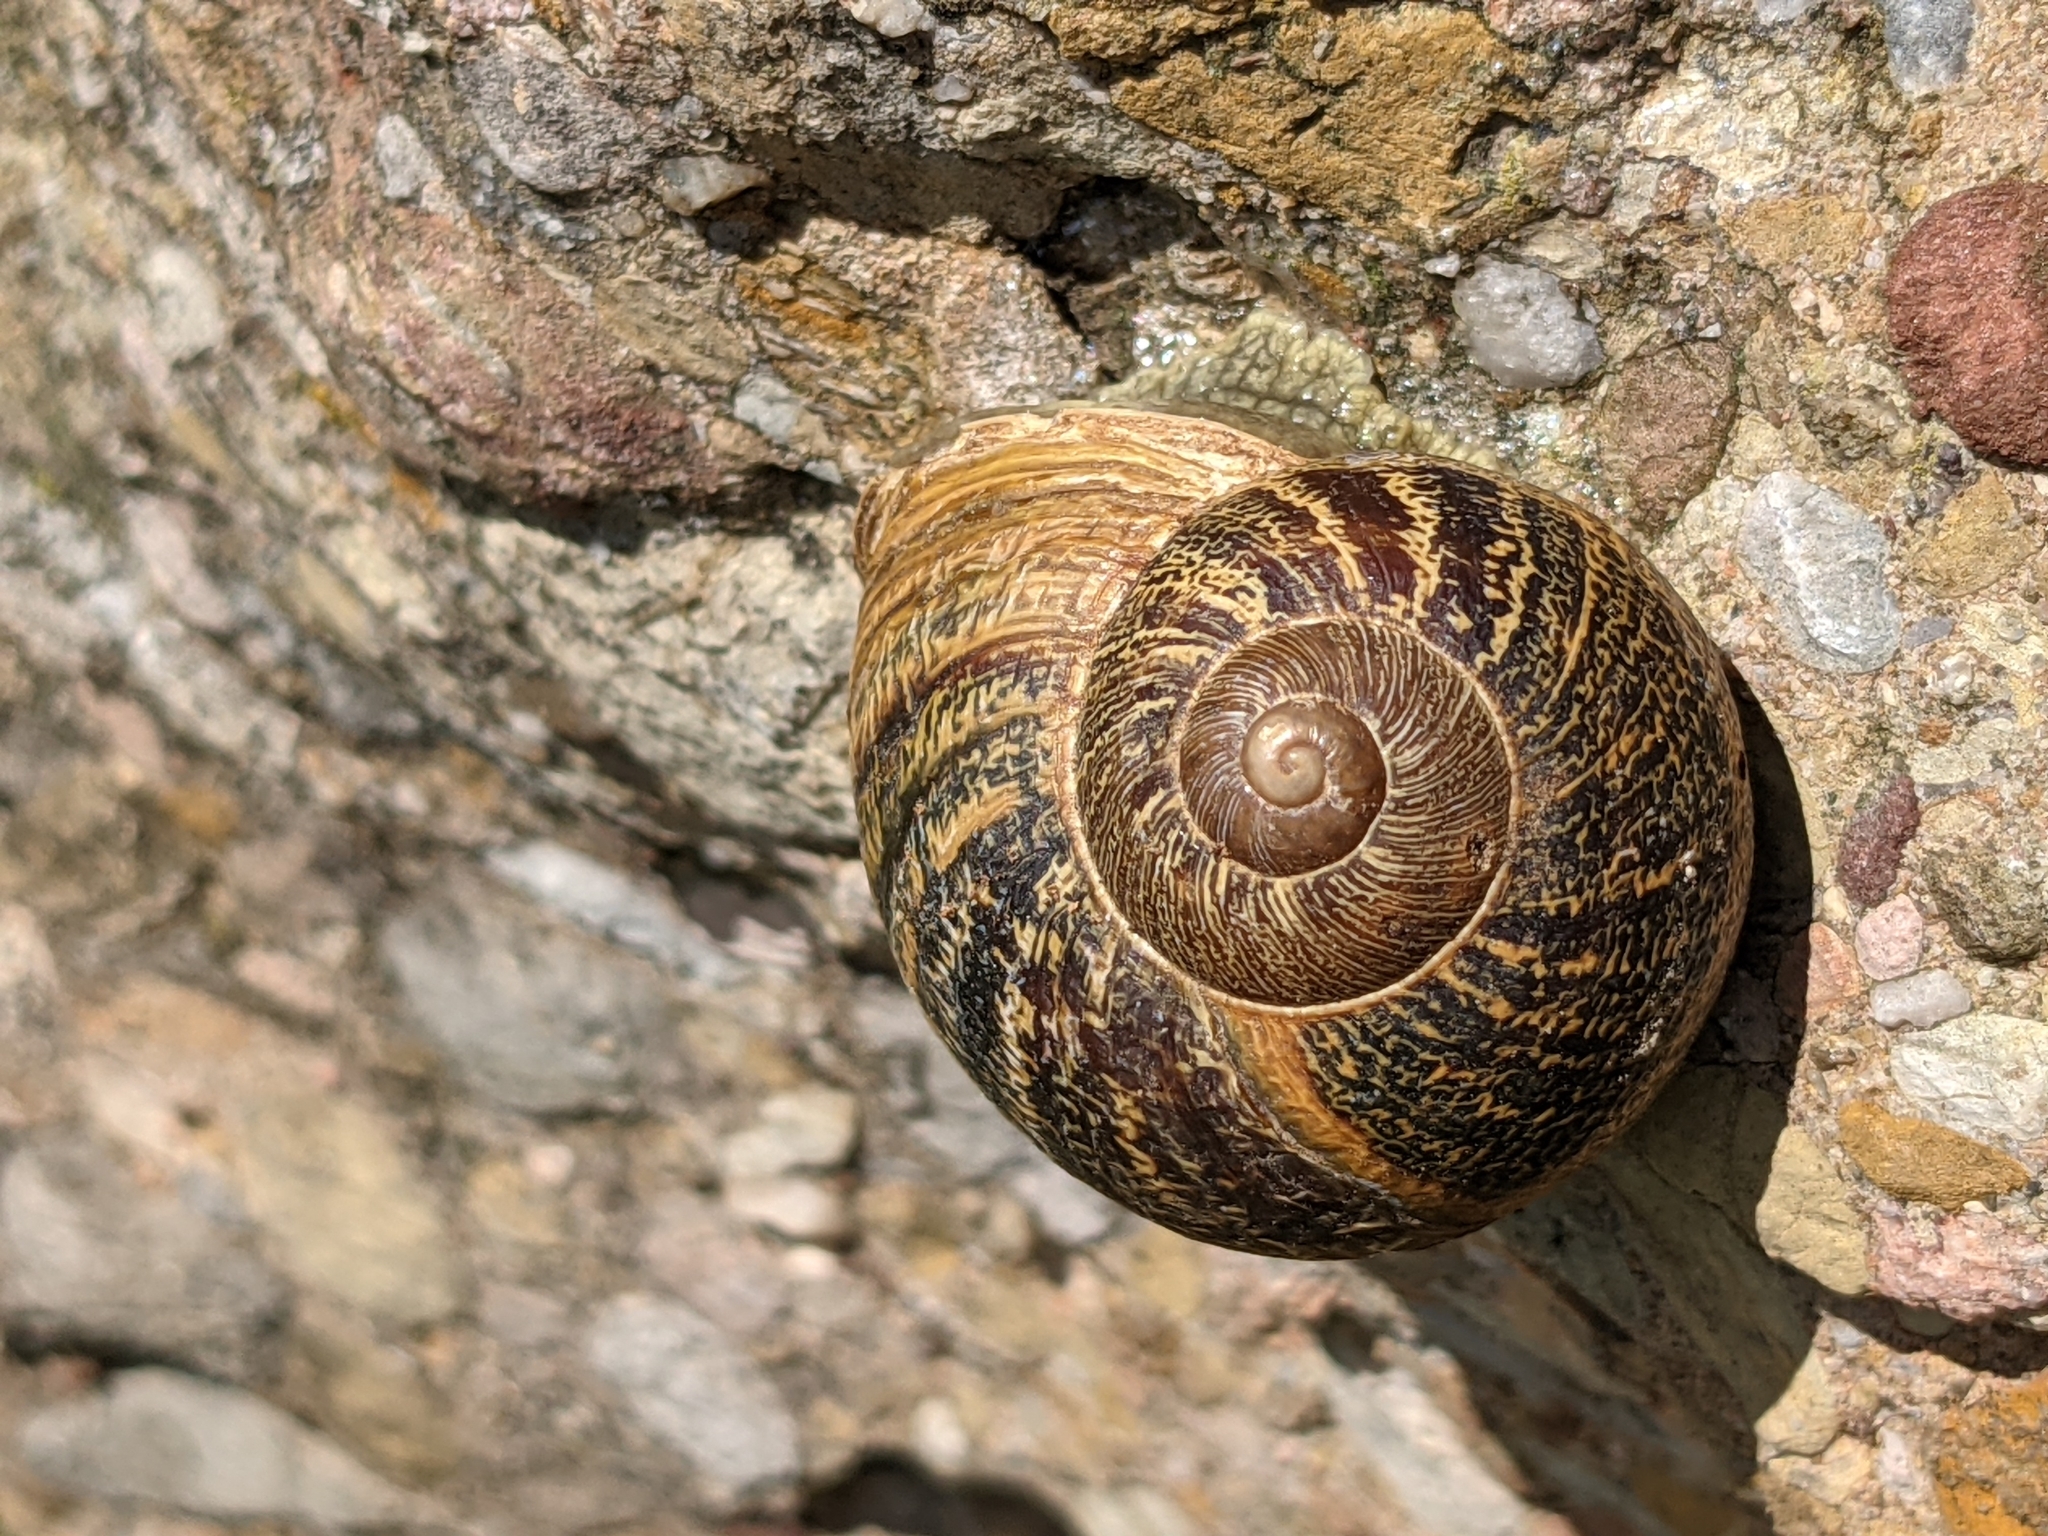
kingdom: Animalia
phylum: Mollusca
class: Gastropoda
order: Stylommatophora
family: Helicidae
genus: Cornu
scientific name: Cornu aspersum
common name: Brown garden snail
